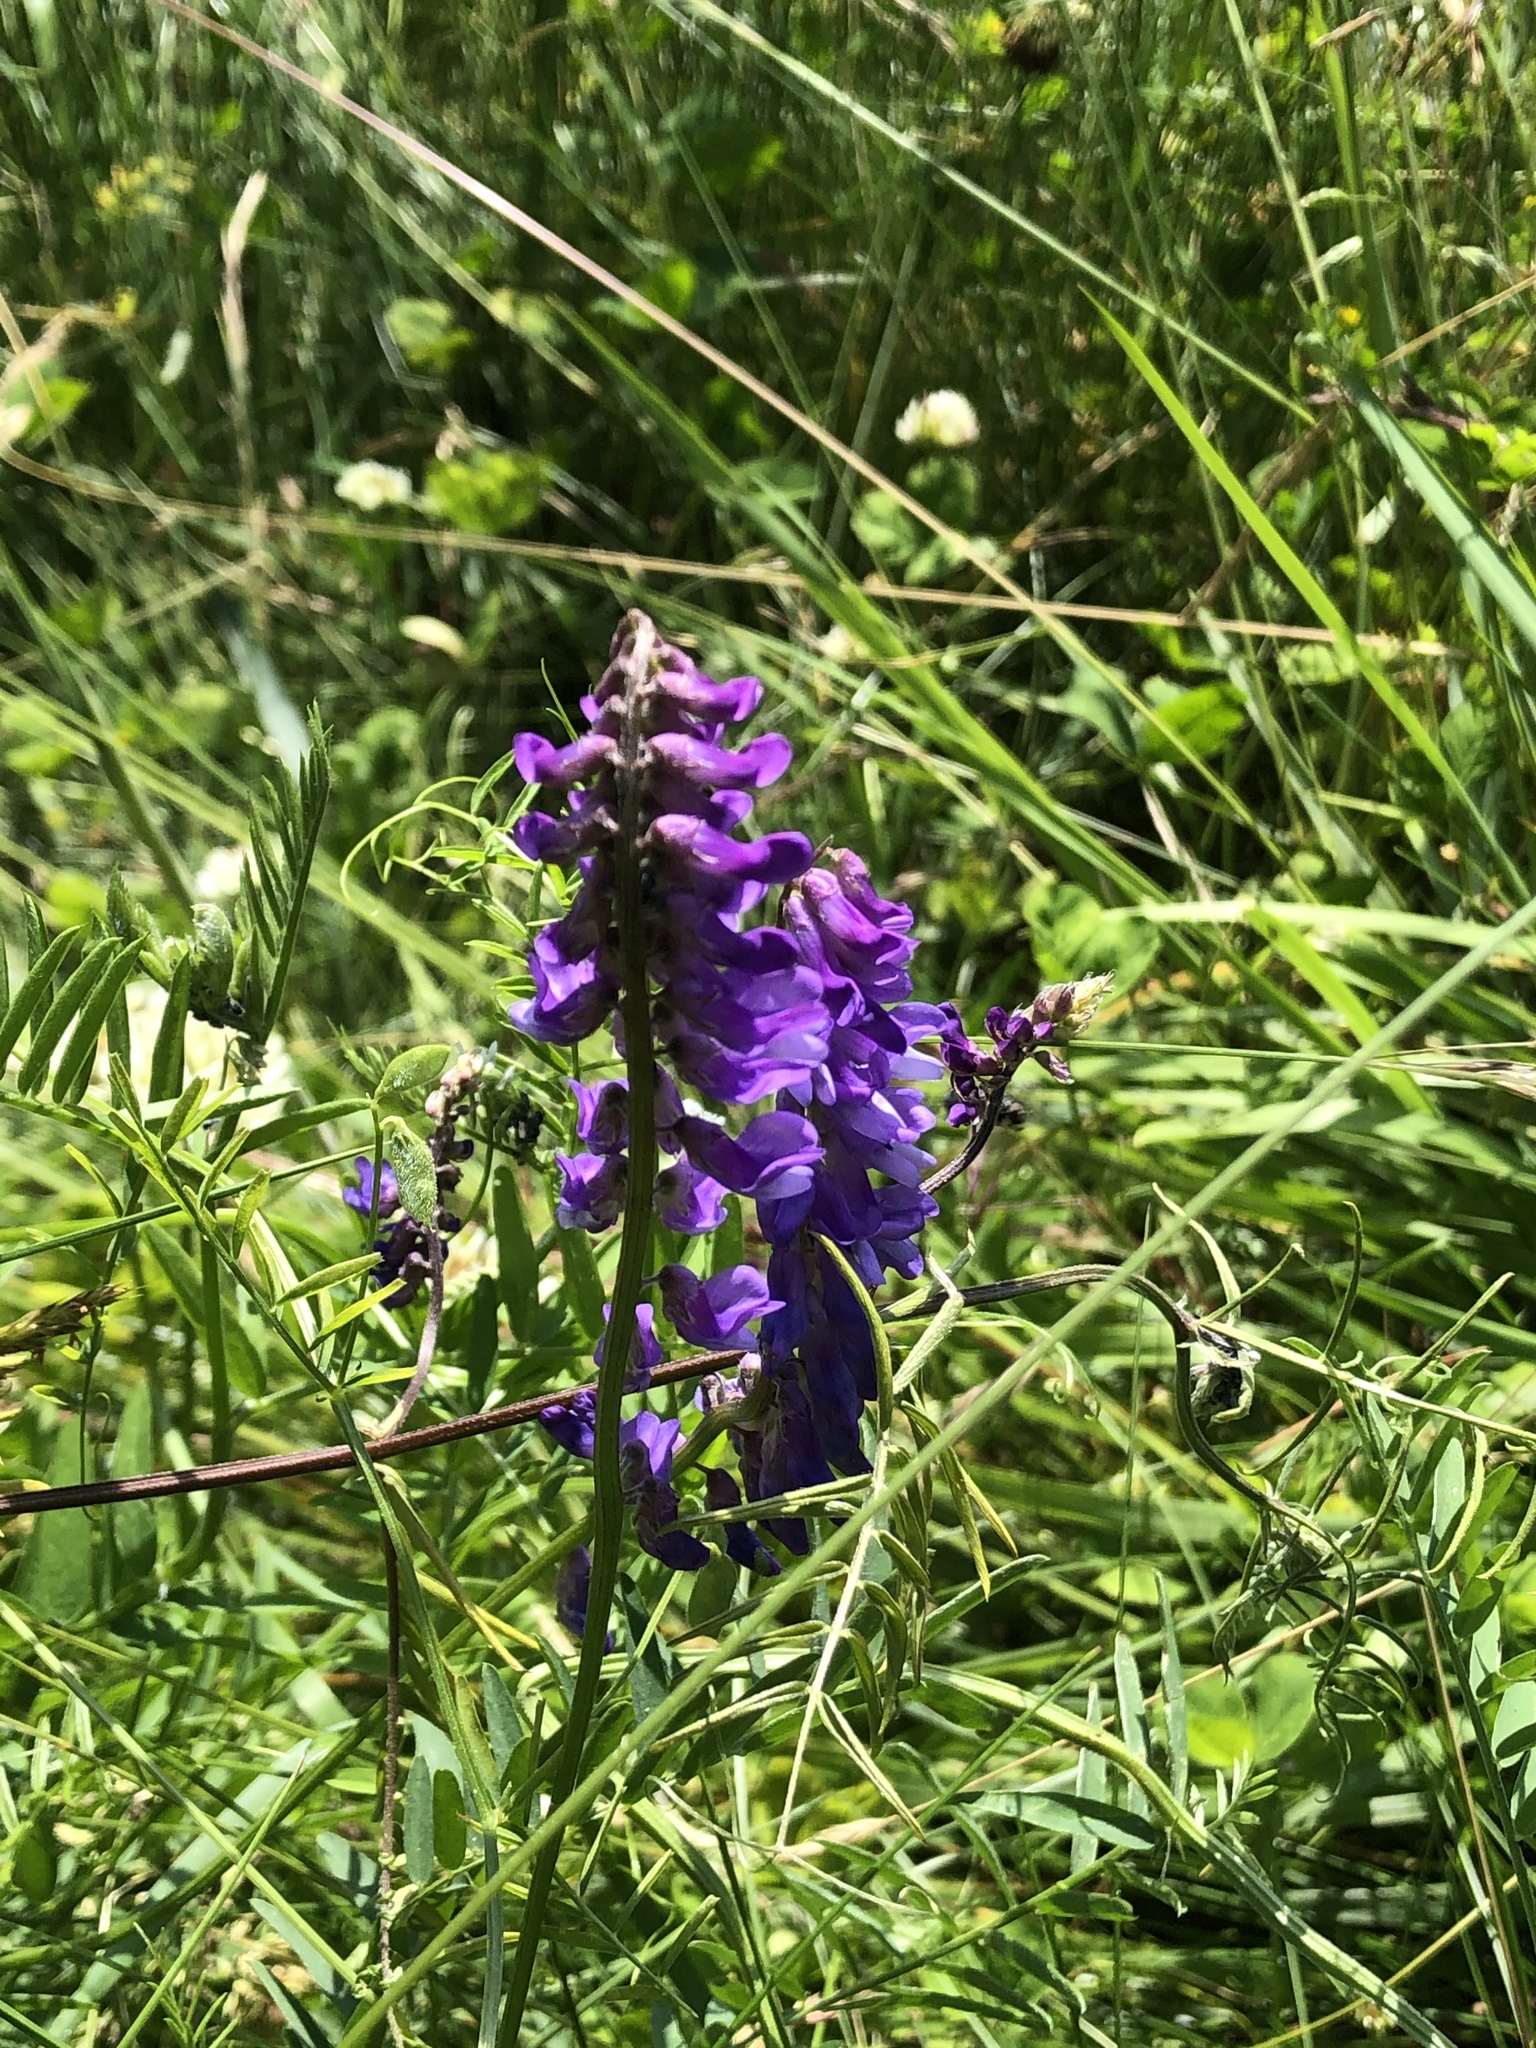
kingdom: Plantae
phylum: Tracheophyta
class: Magnoliopsida
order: Fabales
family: Fabaceae
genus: Vicia
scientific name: Vicia cracca
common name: Bird vetch
